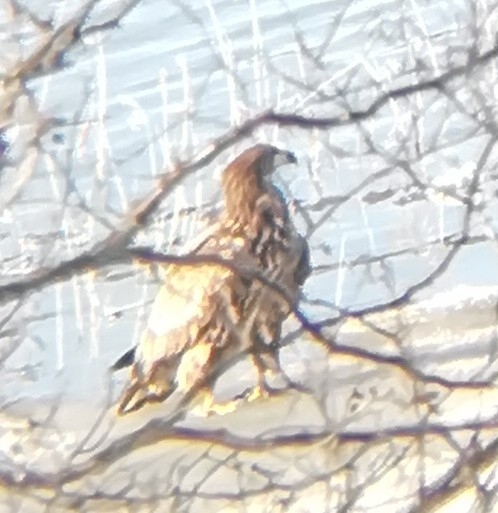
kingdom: Animalia
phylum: Chordata
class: Aves
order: Accipitriformes
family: Accipitridae
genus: Haliaeetus
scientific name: Haliaeetus albicilla
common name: White-tailed eagle
